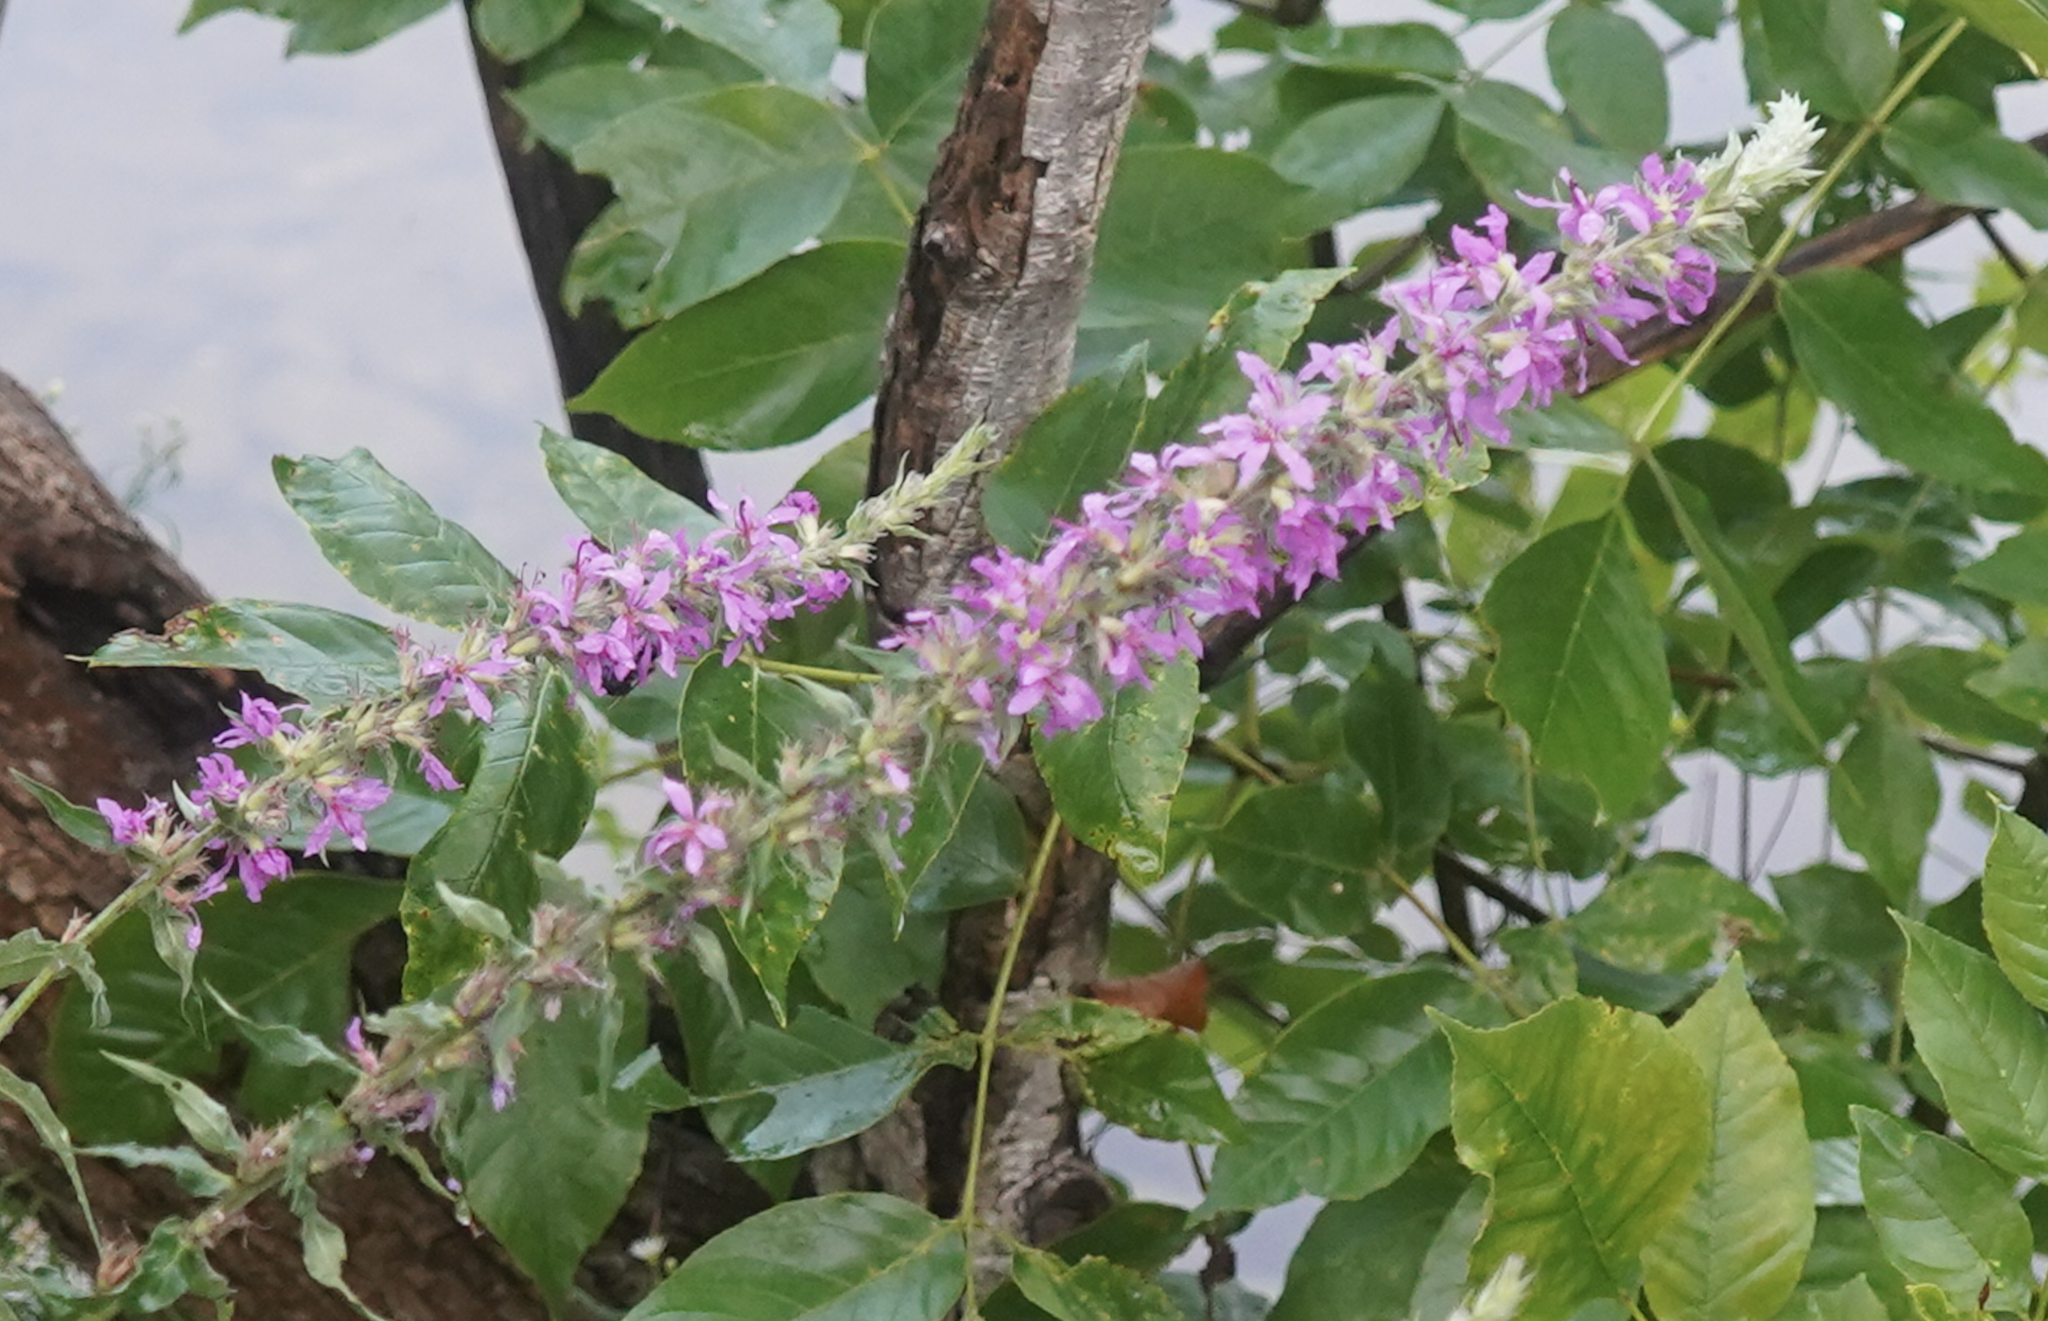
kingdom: Plantae
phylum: Tracheophyta
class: Magnoliopsida
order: Myrtales
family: Lythraceae
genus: Lythrum
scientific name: Lythrum salicaria
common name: Purple loosestrife
